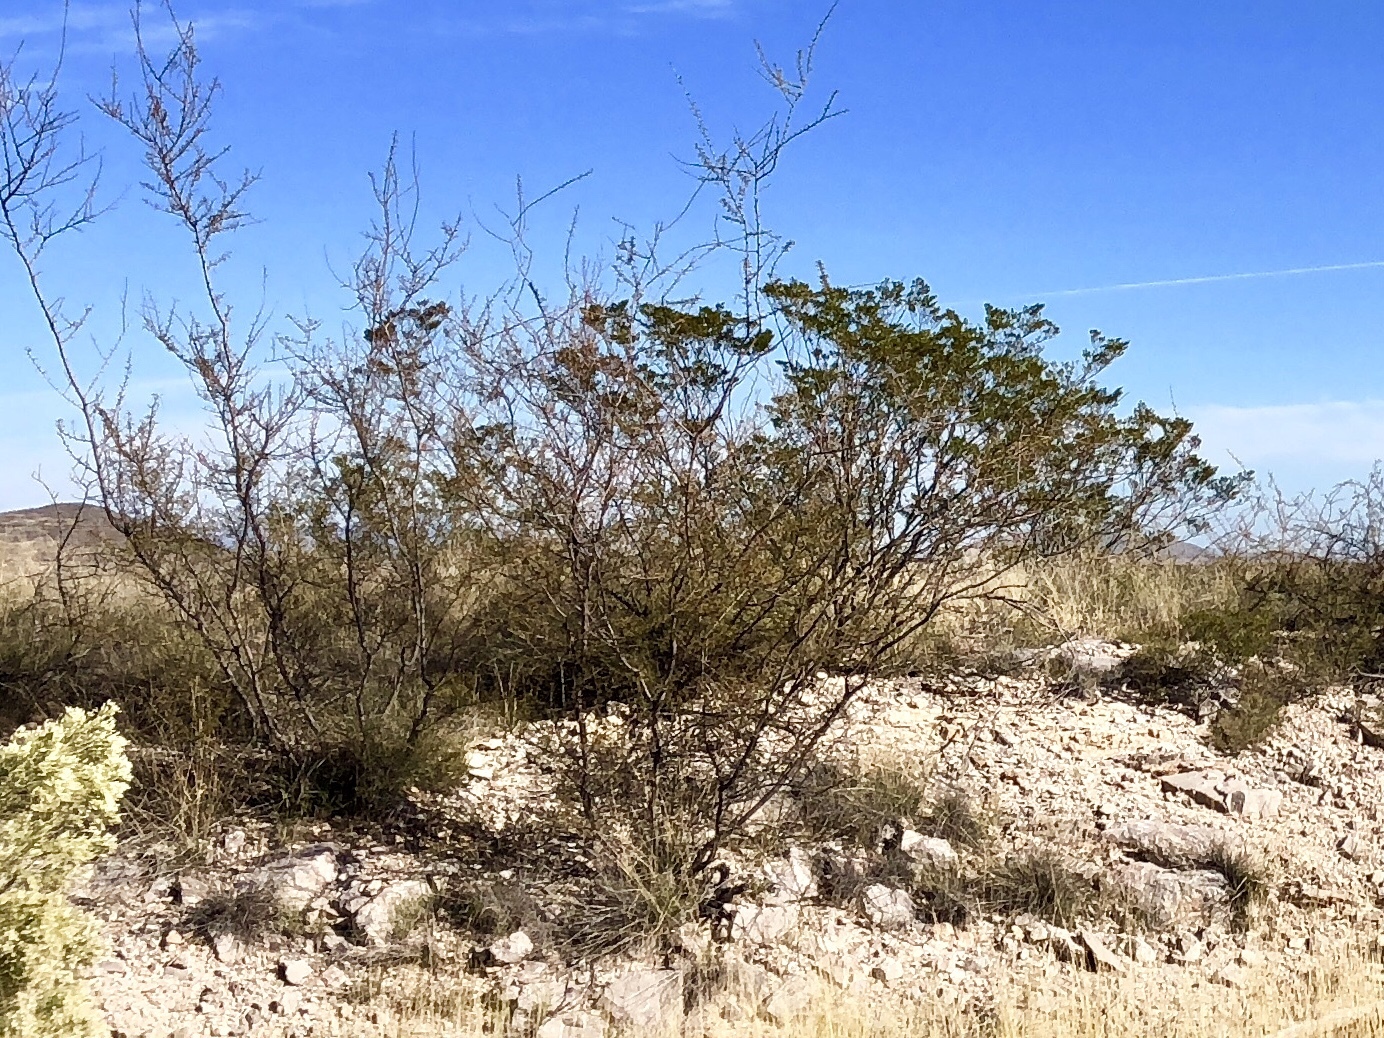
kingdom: Plantae
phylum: Tracheophyta
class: Magnoliopsida
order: Zygophyllales
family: Zygophyllaceae
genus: Larrea
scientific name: Larrea tridentata
